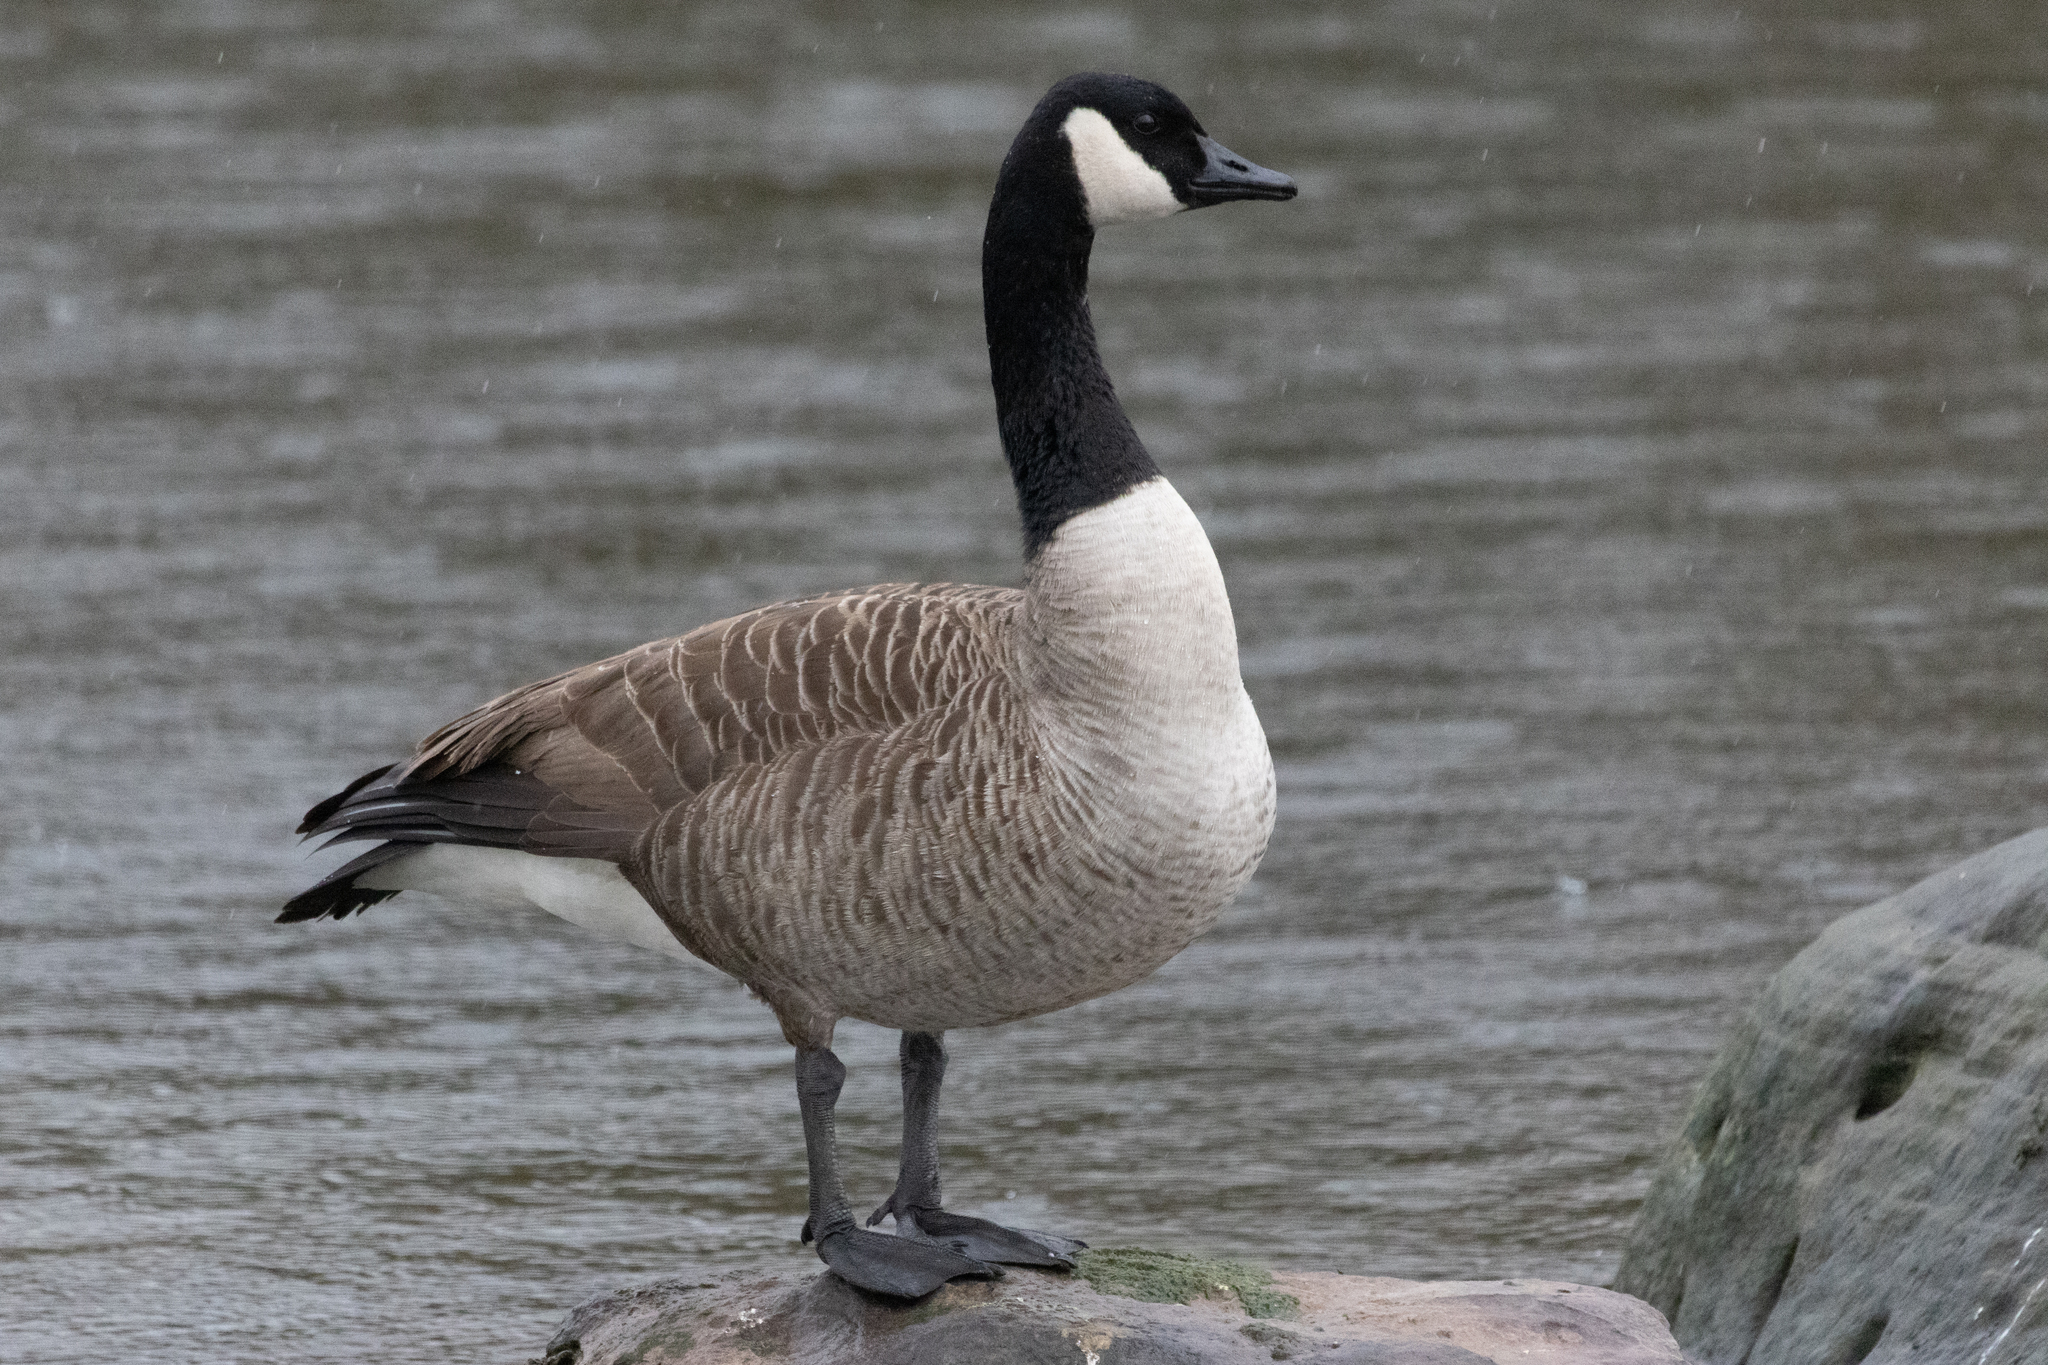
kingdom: Animalia
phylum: Chordata
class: Aves
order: Anseriformes
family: Anatidae
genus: Branta
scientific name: Branta canadensis
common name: Canada goose
